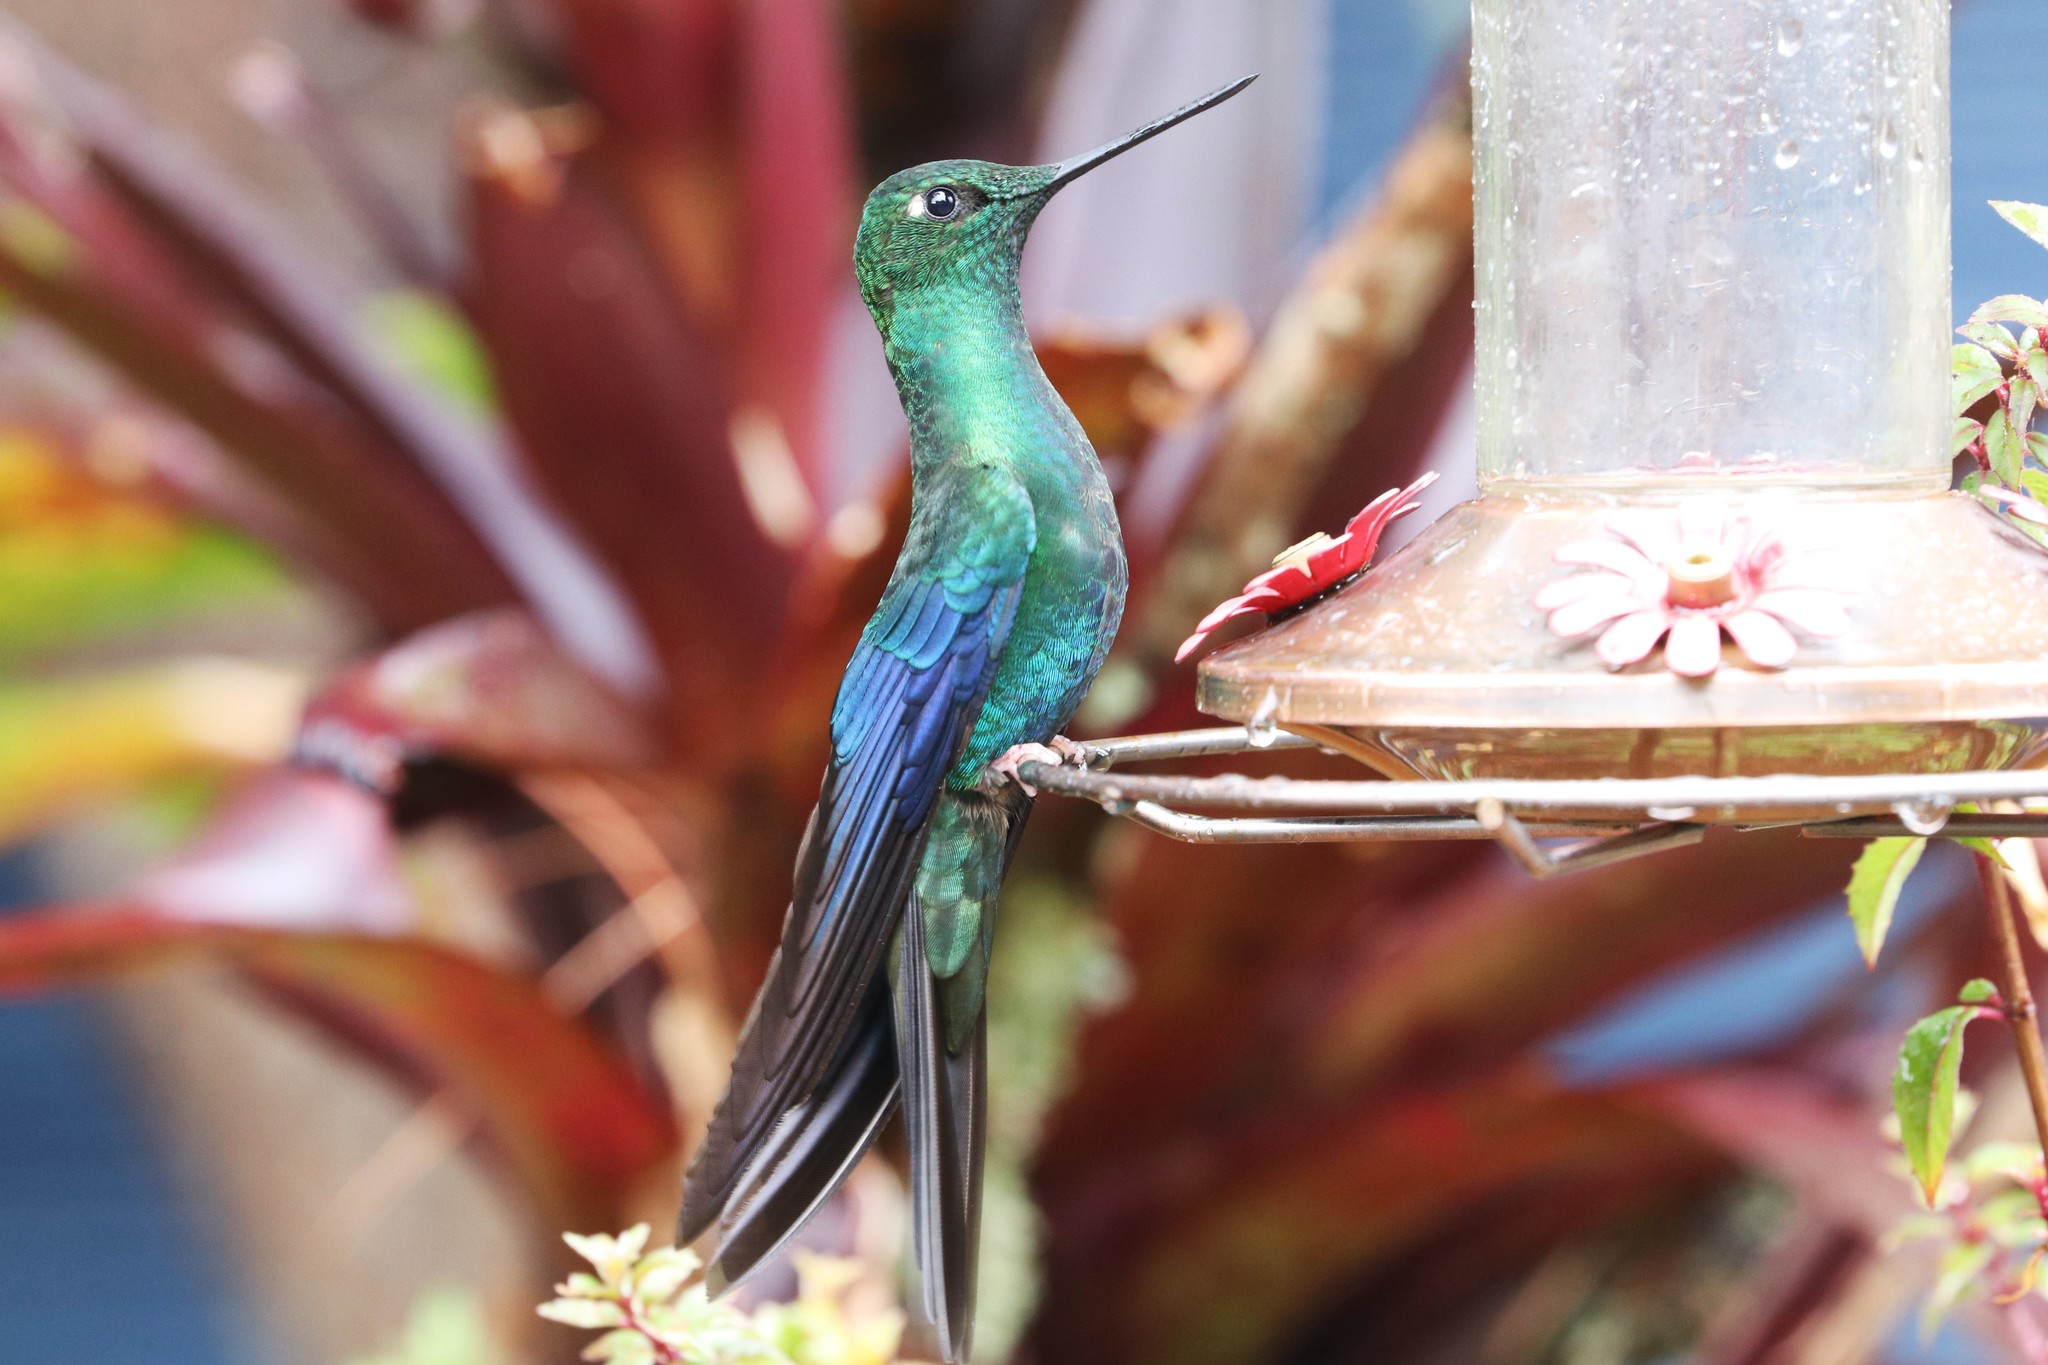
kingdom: Animalia
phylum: Chordata
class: Aves
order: Apodiformes
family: Trochilidae
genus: Pterophanes
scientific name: Pterophanes cyanopterus
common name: Great sapphirewing
